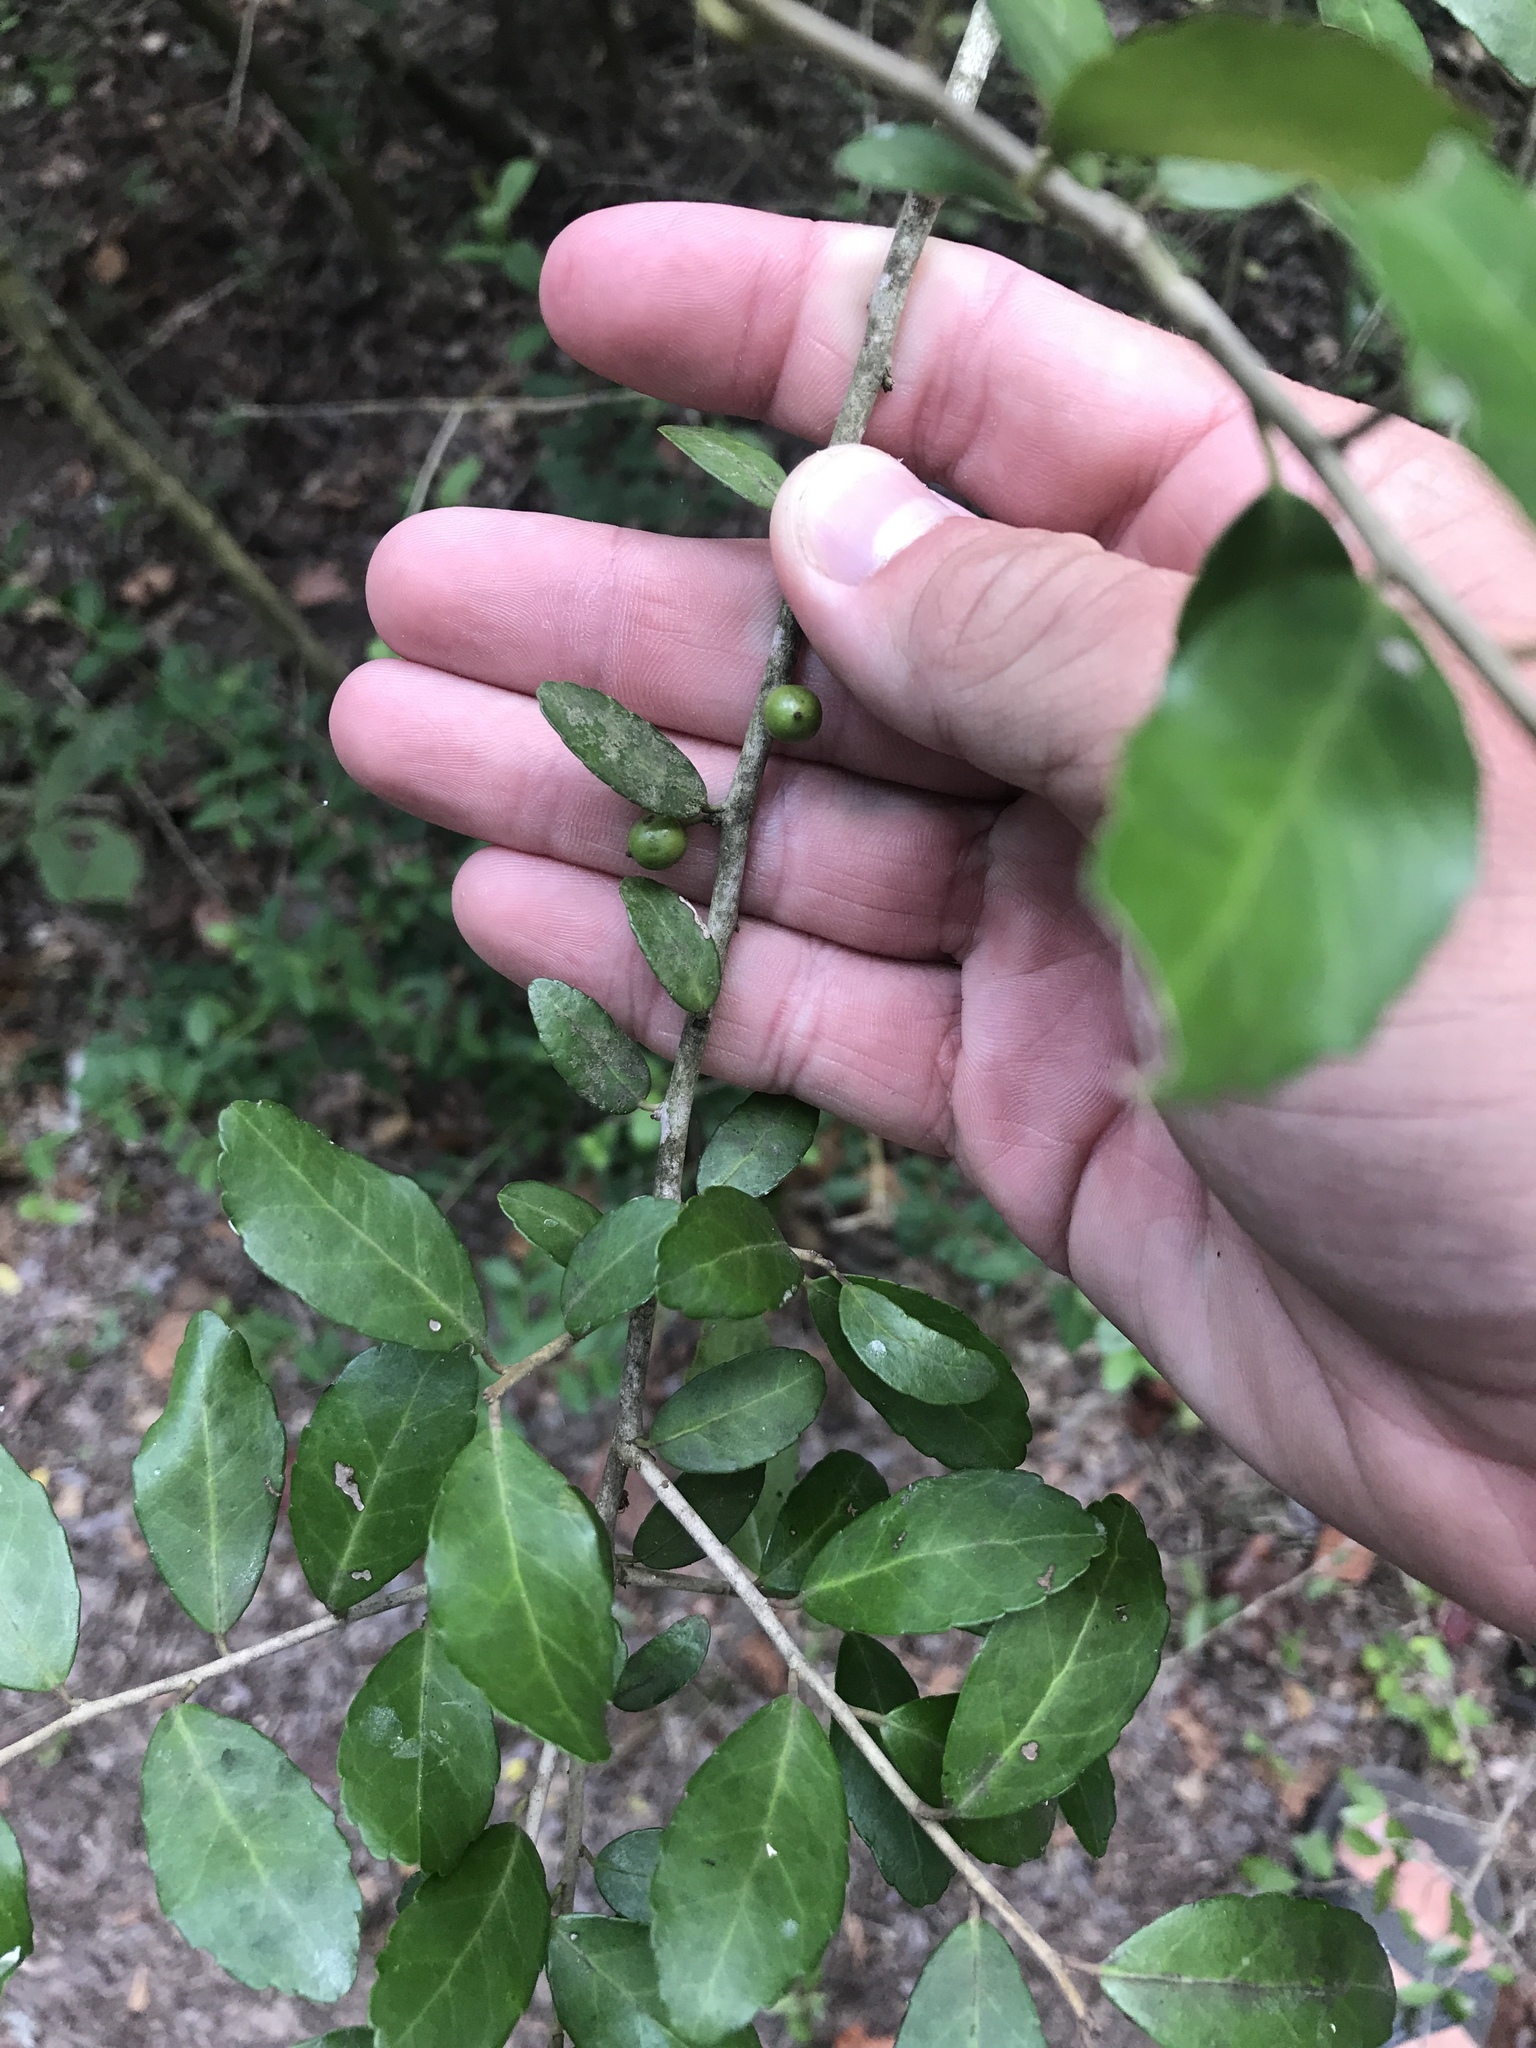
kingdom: Plantae
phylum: Tracheophyta
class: Magnoliopsida
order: Aquifoliales
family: Aquifoliaceae
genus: Ilex
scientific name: Ilex vomitoria
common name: Yaupon holly
